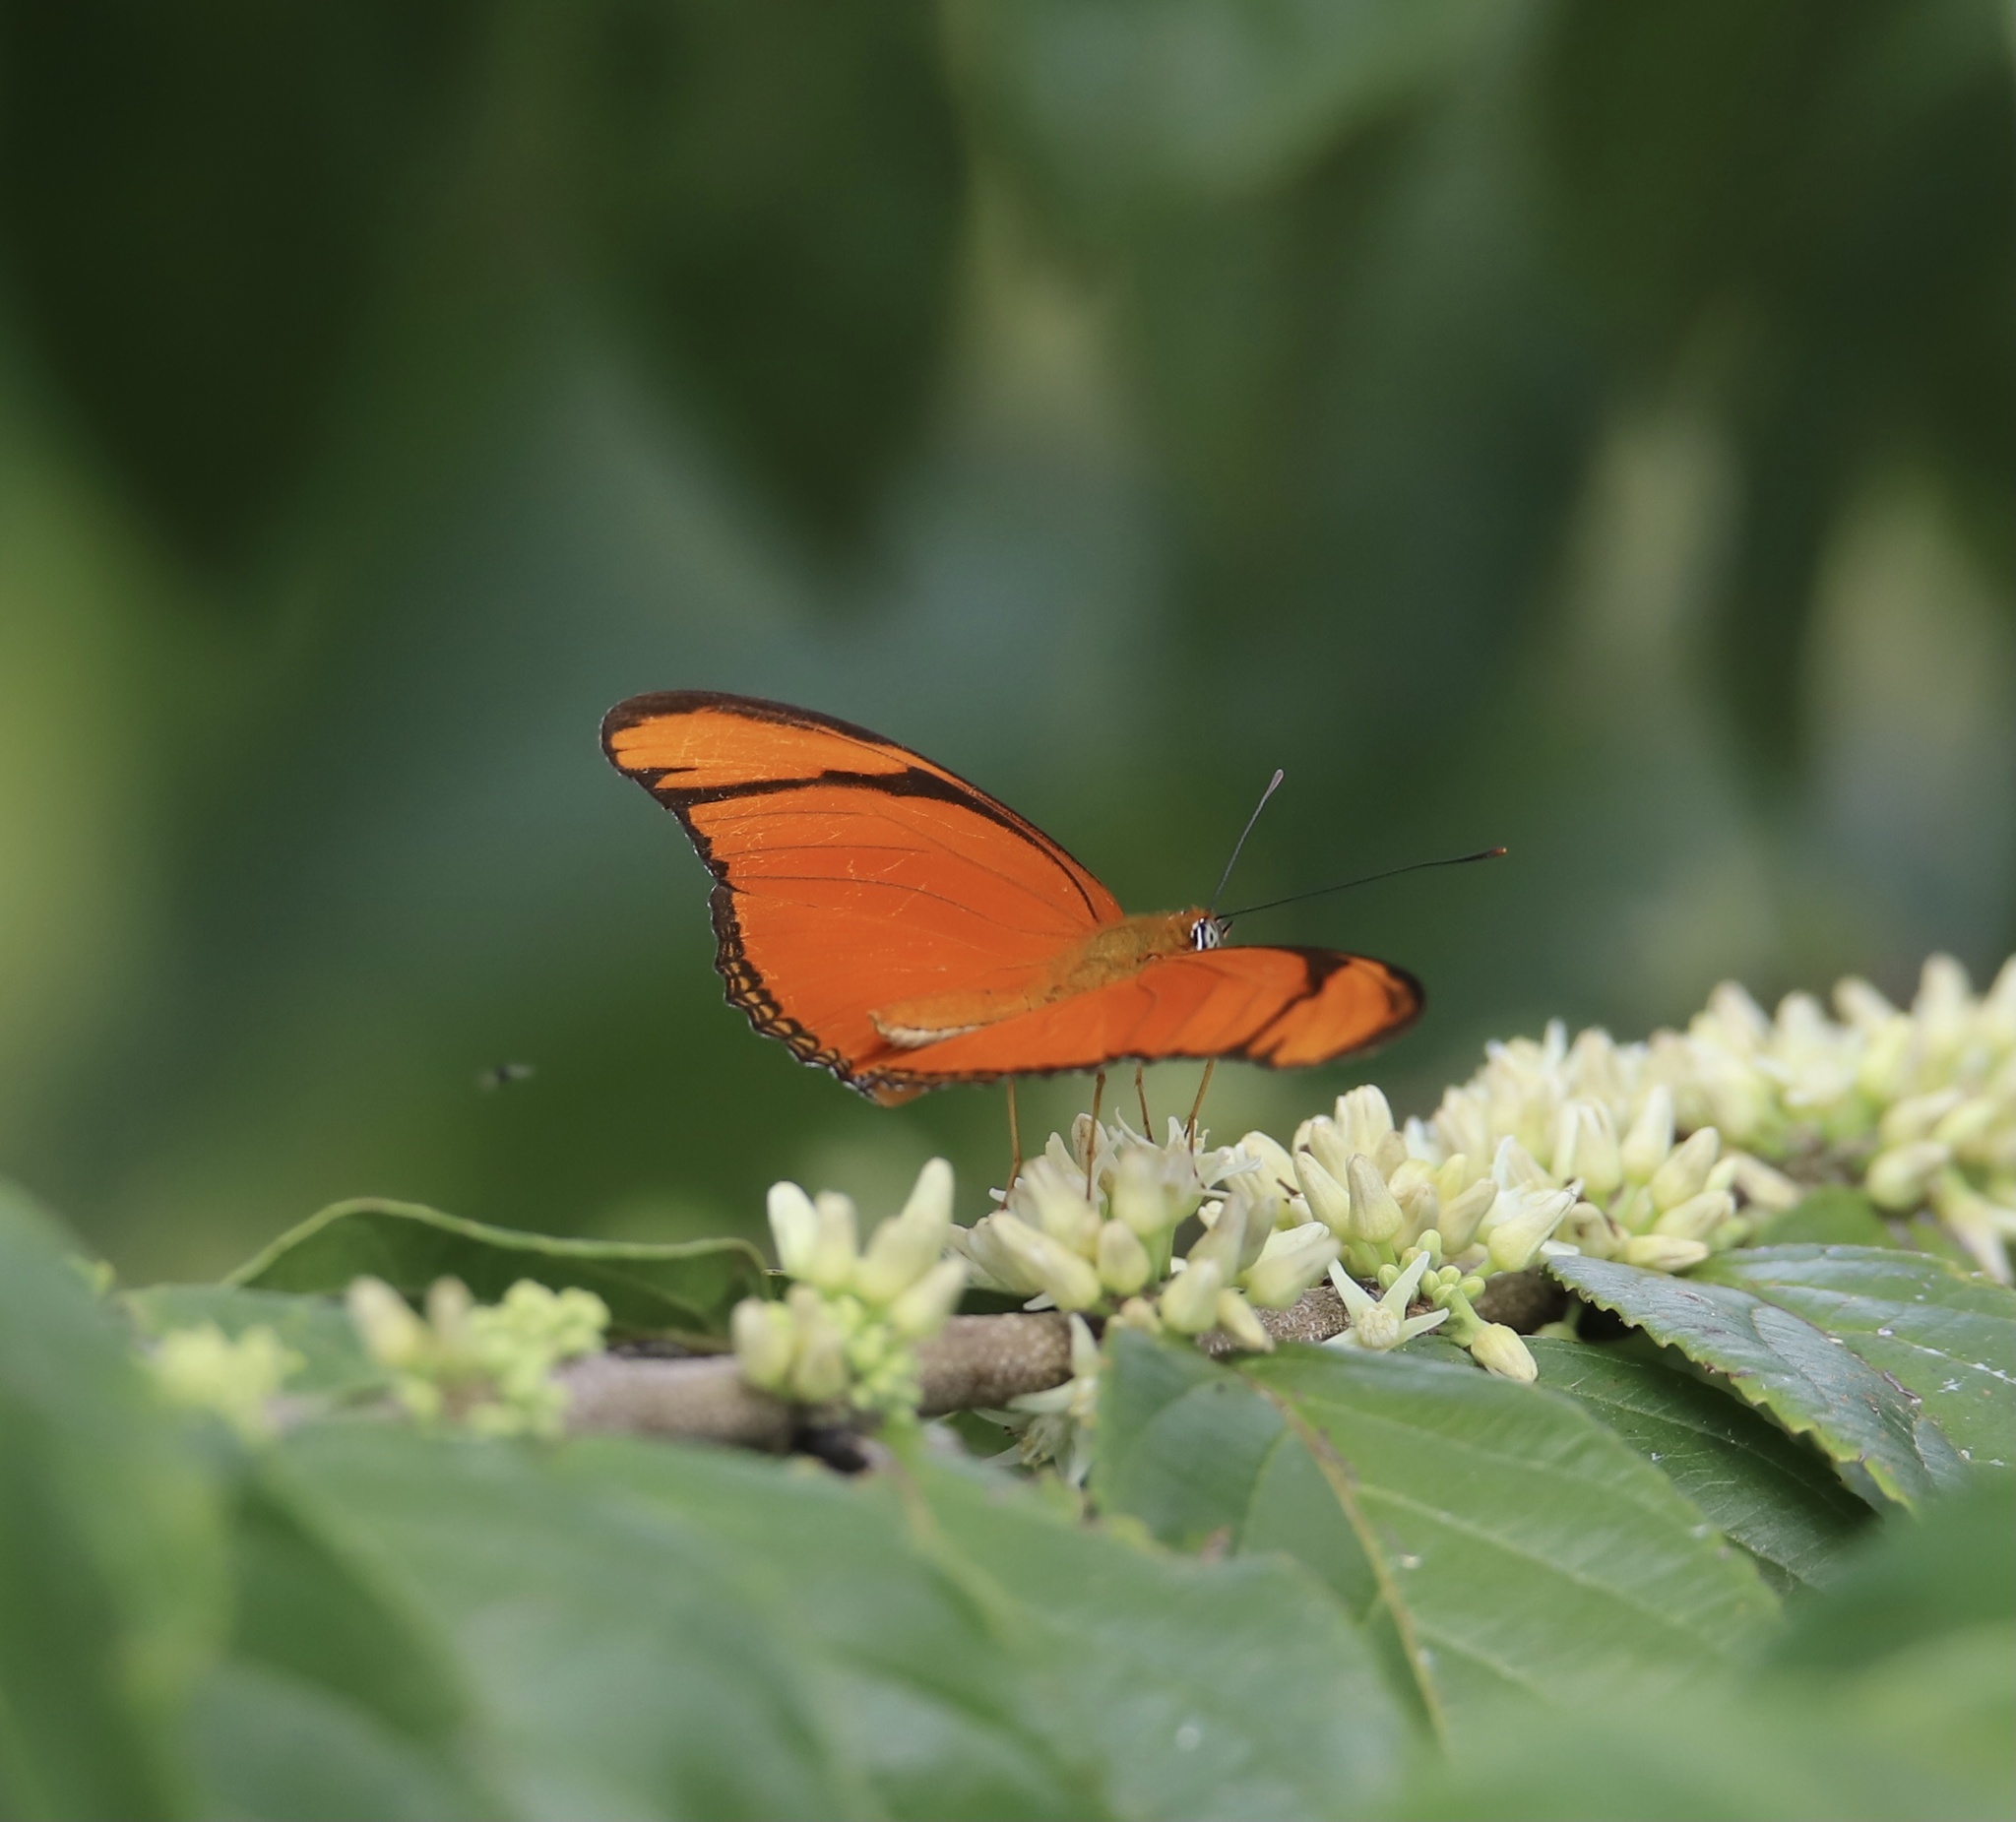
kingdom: Animalia
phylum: Arthropoda
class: Insecta
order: Lepidoptera
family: Nymphalidae
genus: Dryas
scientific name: Dryas iulia
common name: Flambeau
